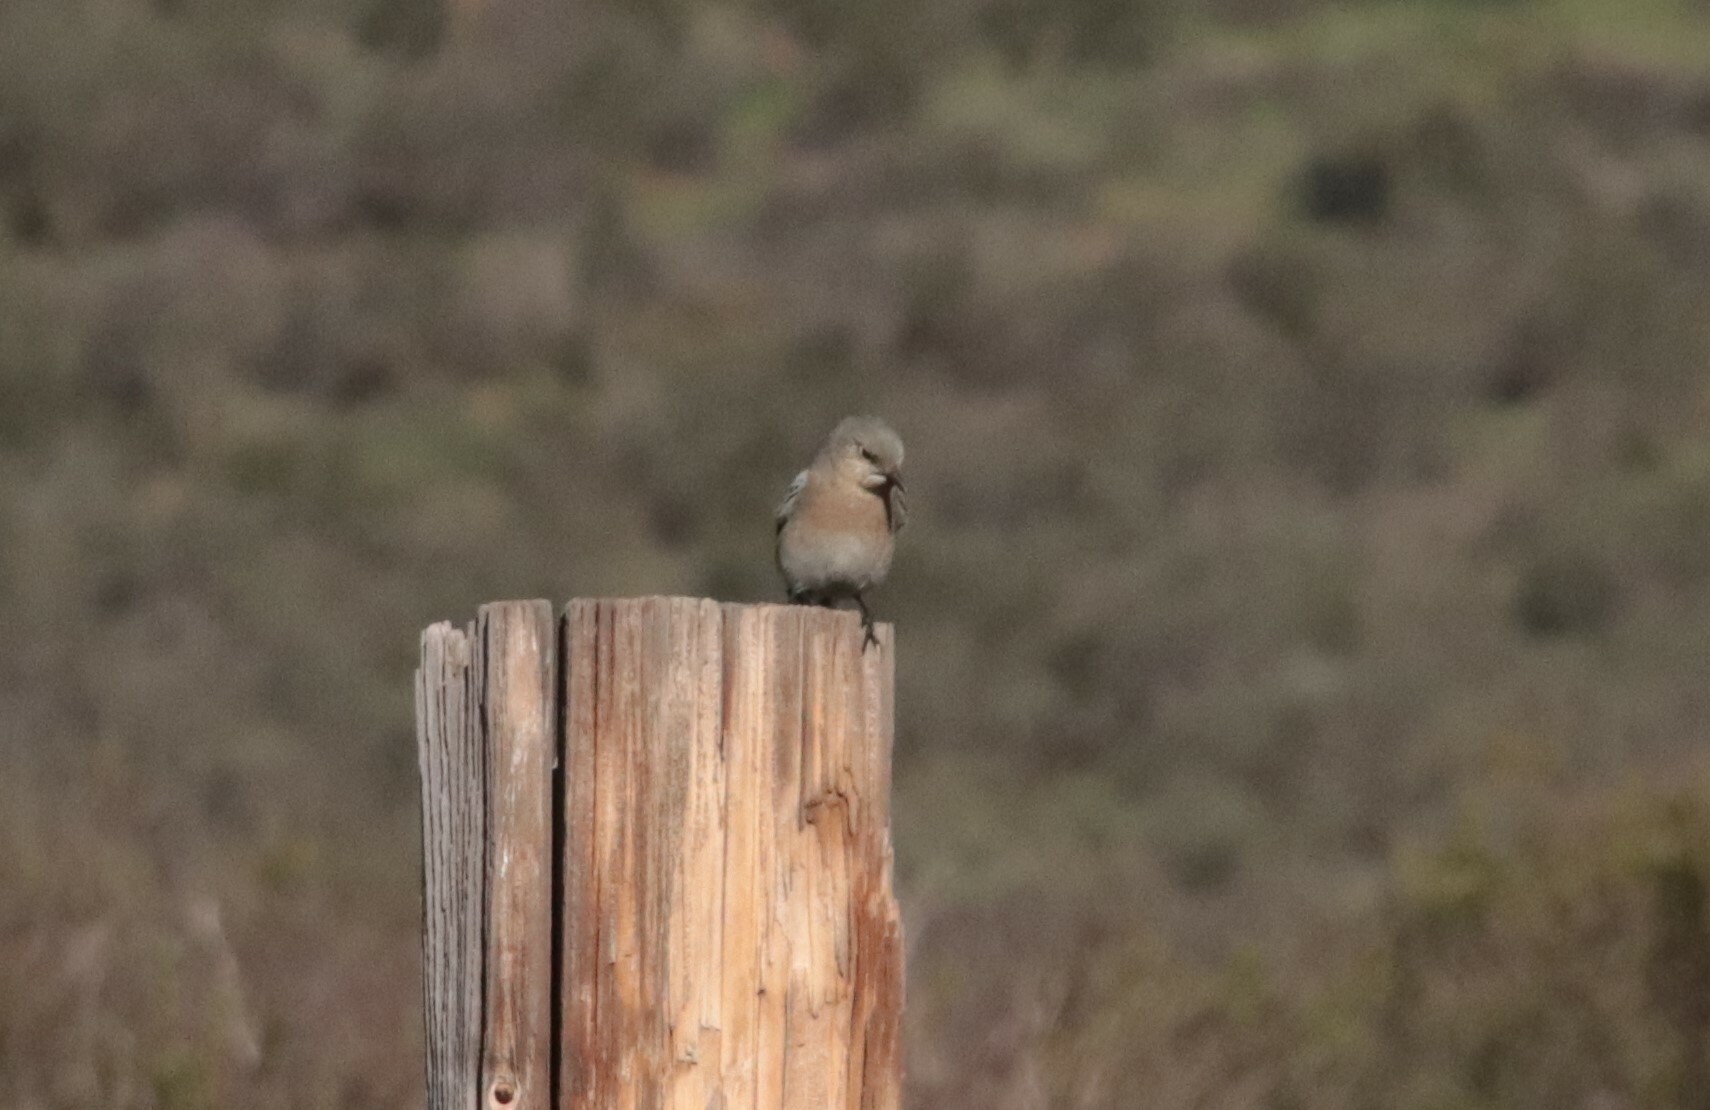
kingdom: Animalia
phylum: Chordata
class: Aves
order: Passeriformes
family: Turdidae
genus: Sialia
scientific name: Sialia currucoides
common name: Mountain bluebird
